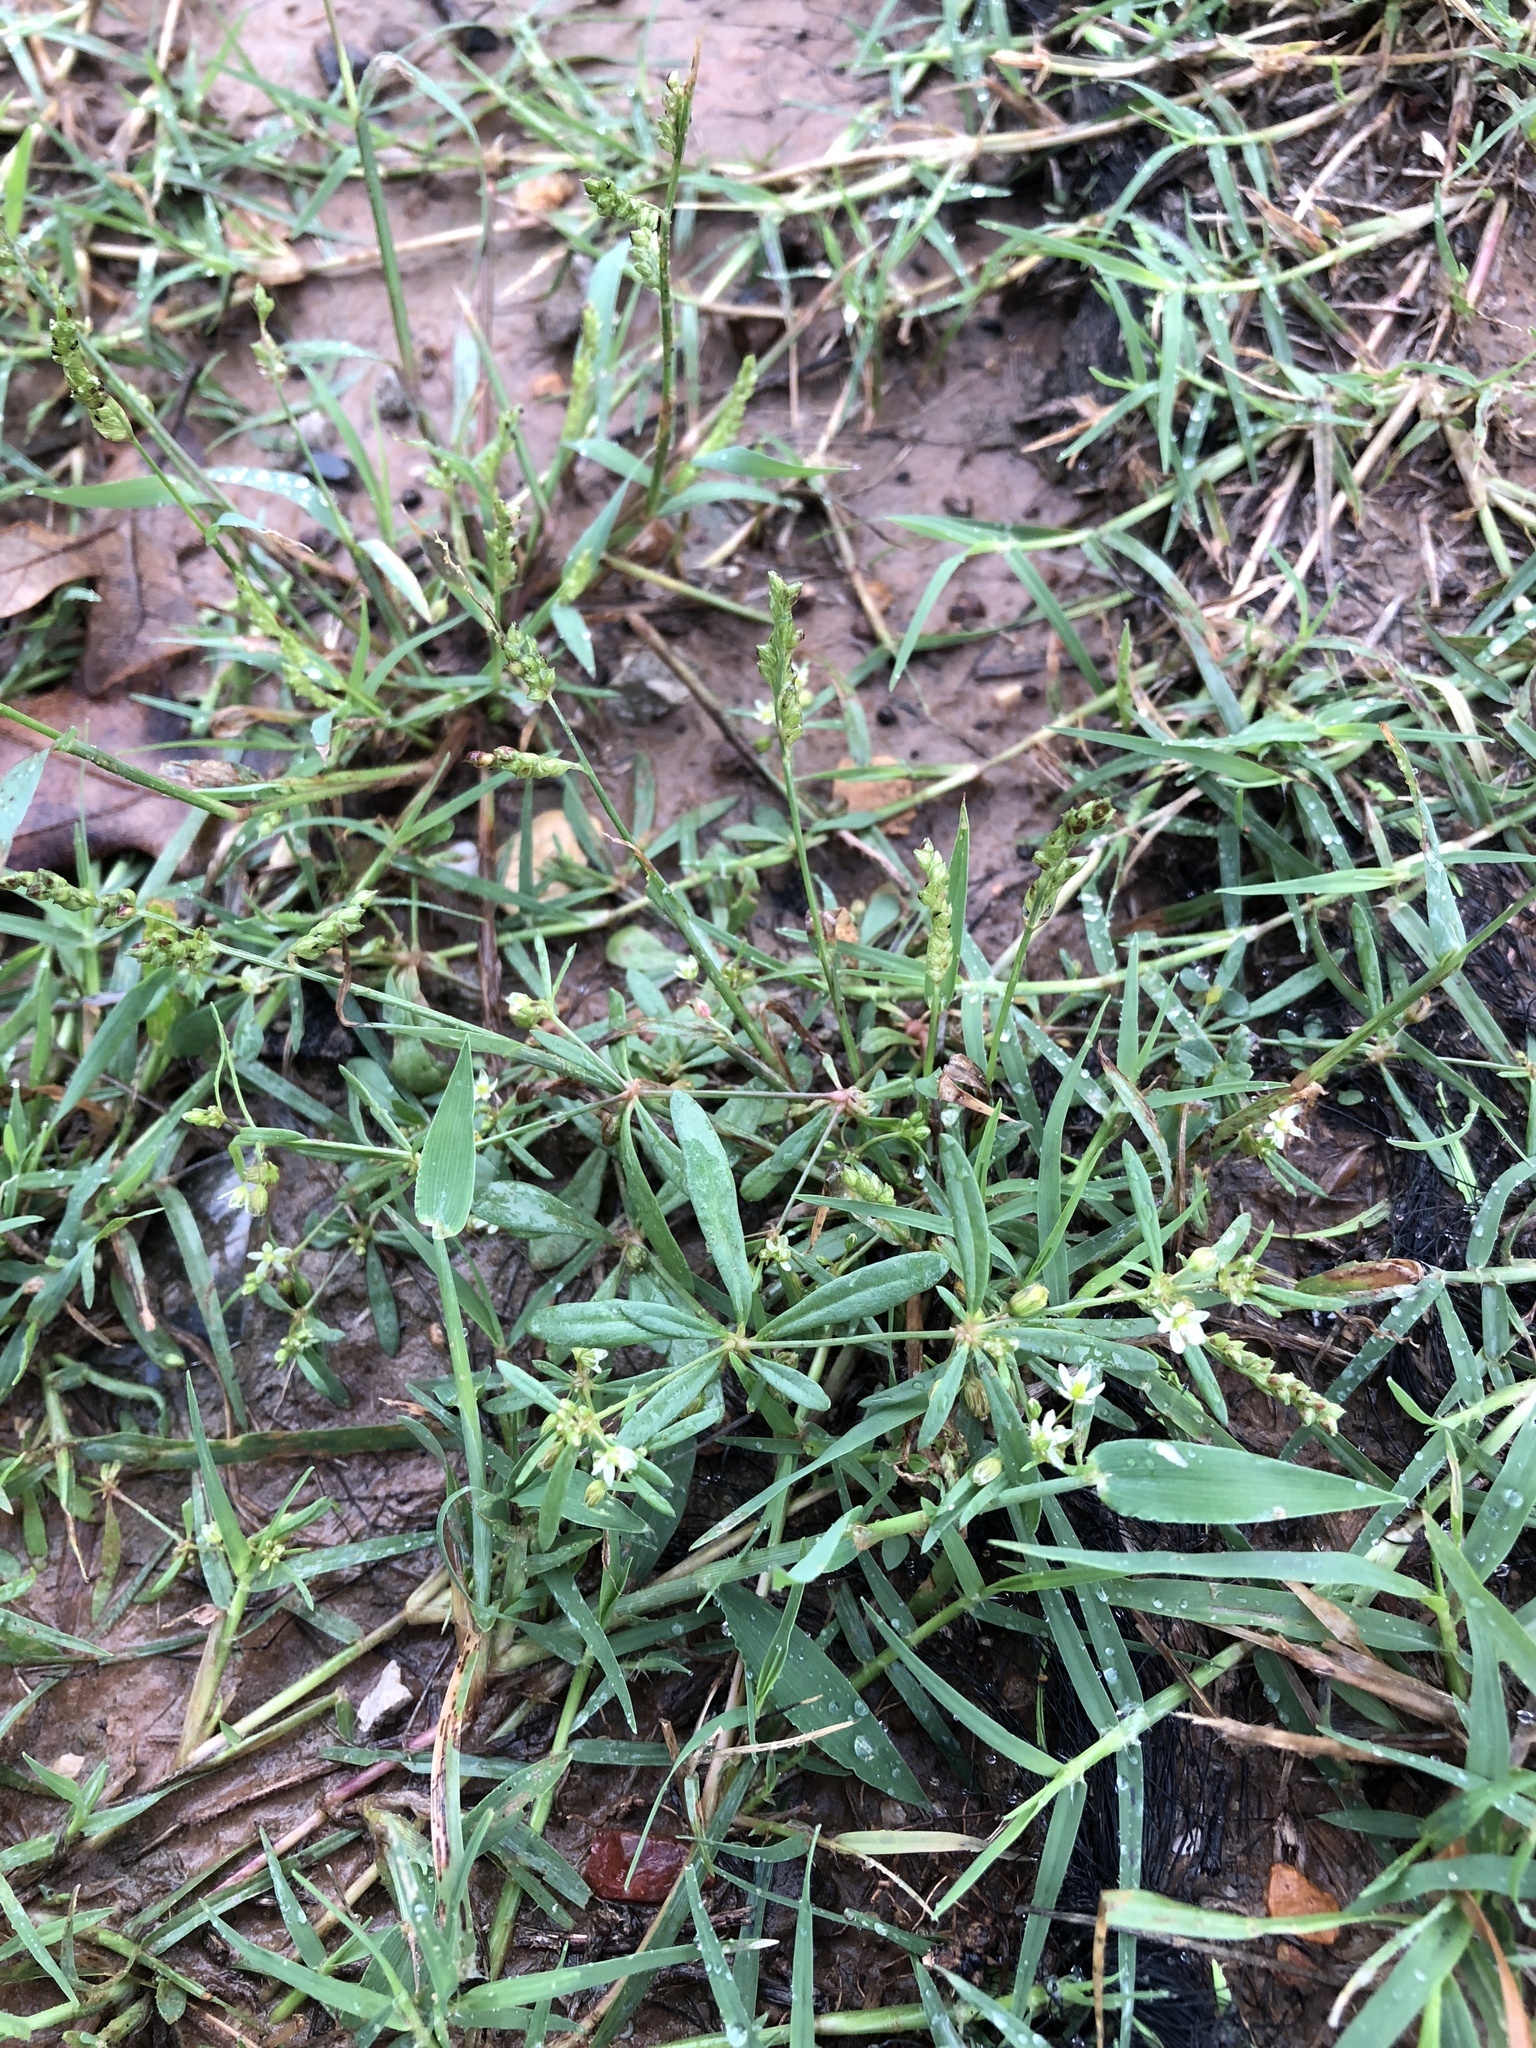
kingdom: Plantae
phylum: Tracheophyta
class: Magnoliopsida
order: Caryophyllales
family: Molluginaceae
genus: Mollugo
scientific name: Mollugo verticillata
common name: Green carpetweed
